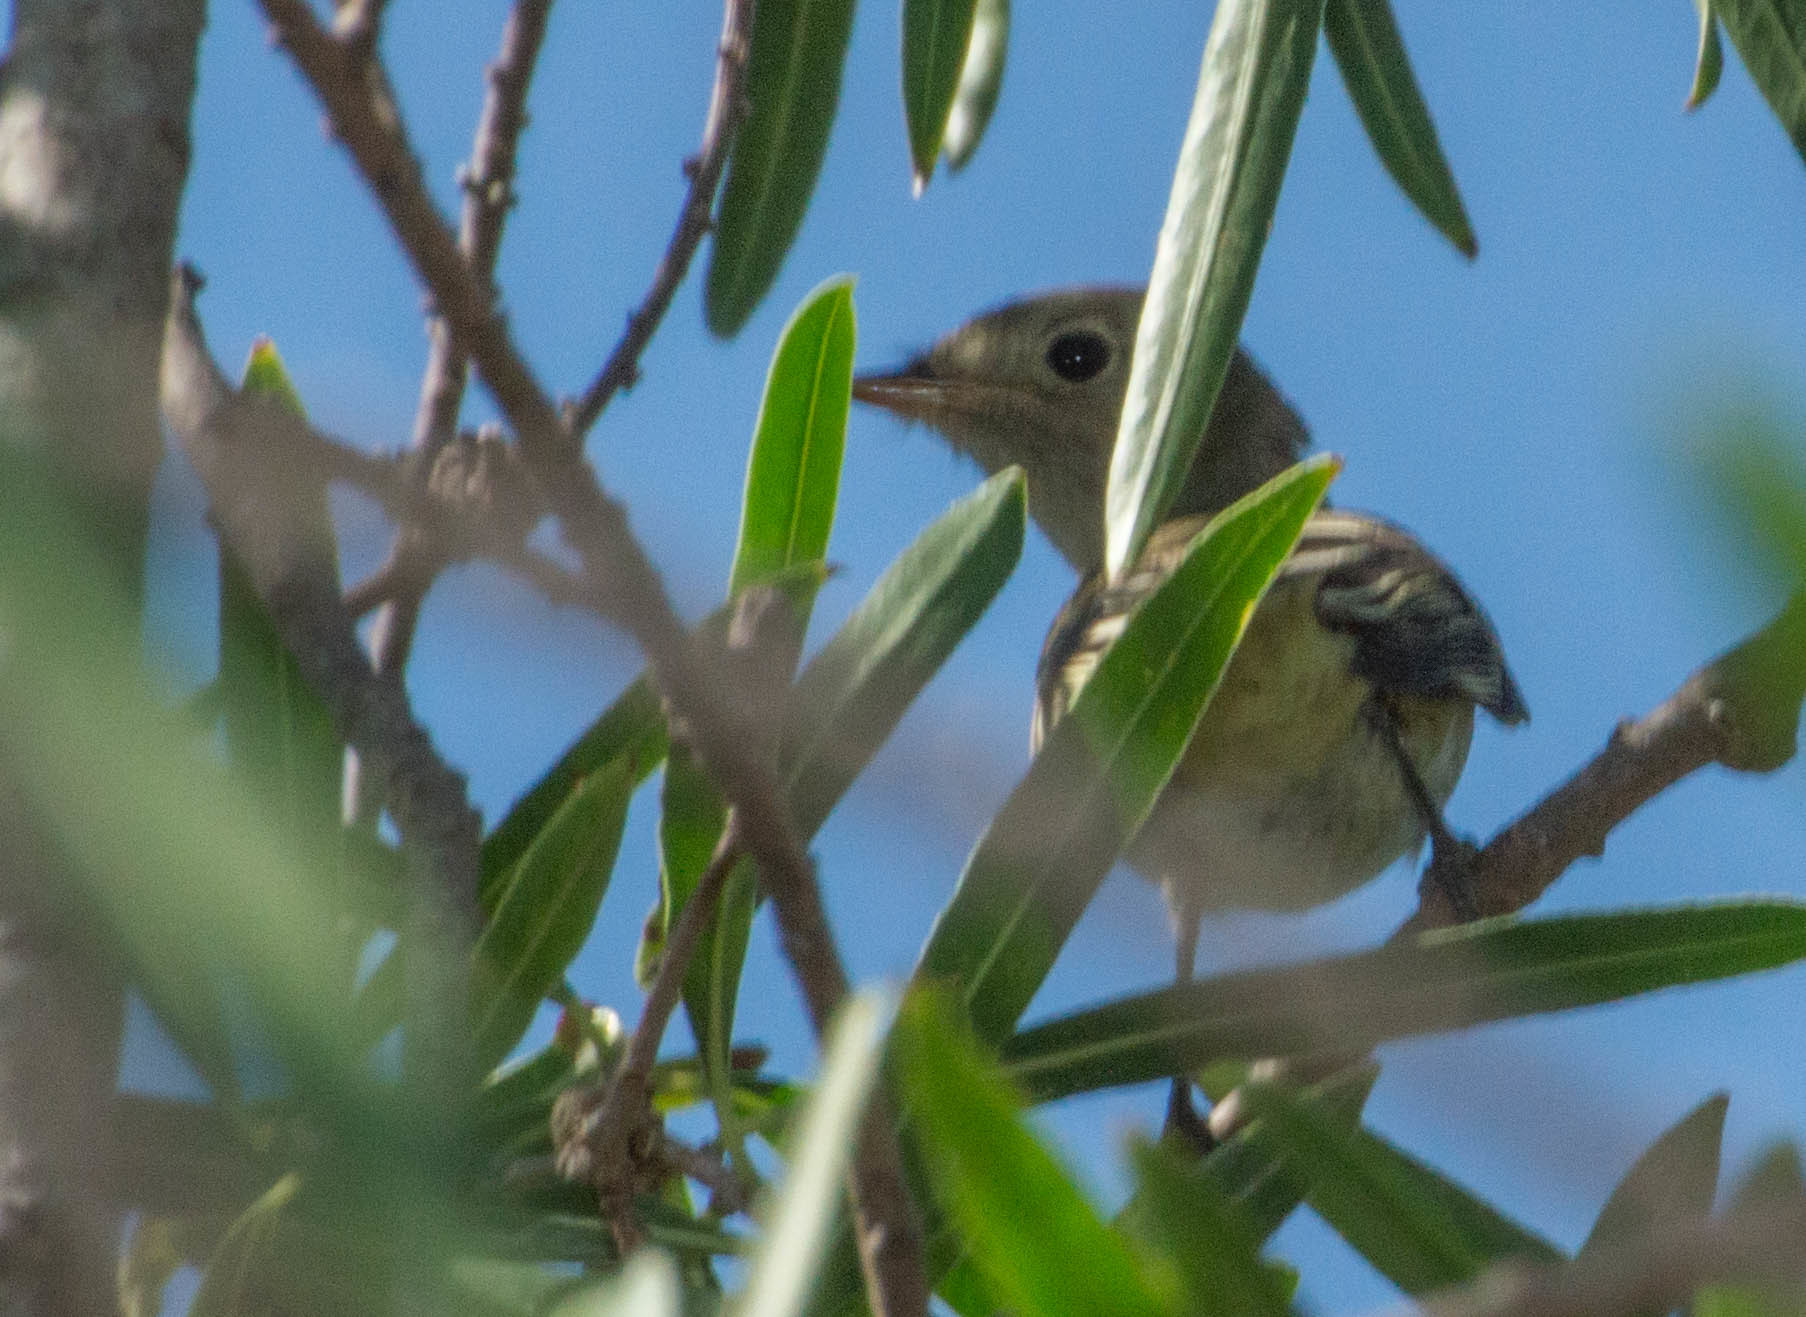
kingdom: Animalia
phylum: Chordata
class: Aves
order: Passeriformes
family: Cotingidae
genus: Pachyramphus
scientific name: Pachyramphus polychopterus
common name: White-winged becard
